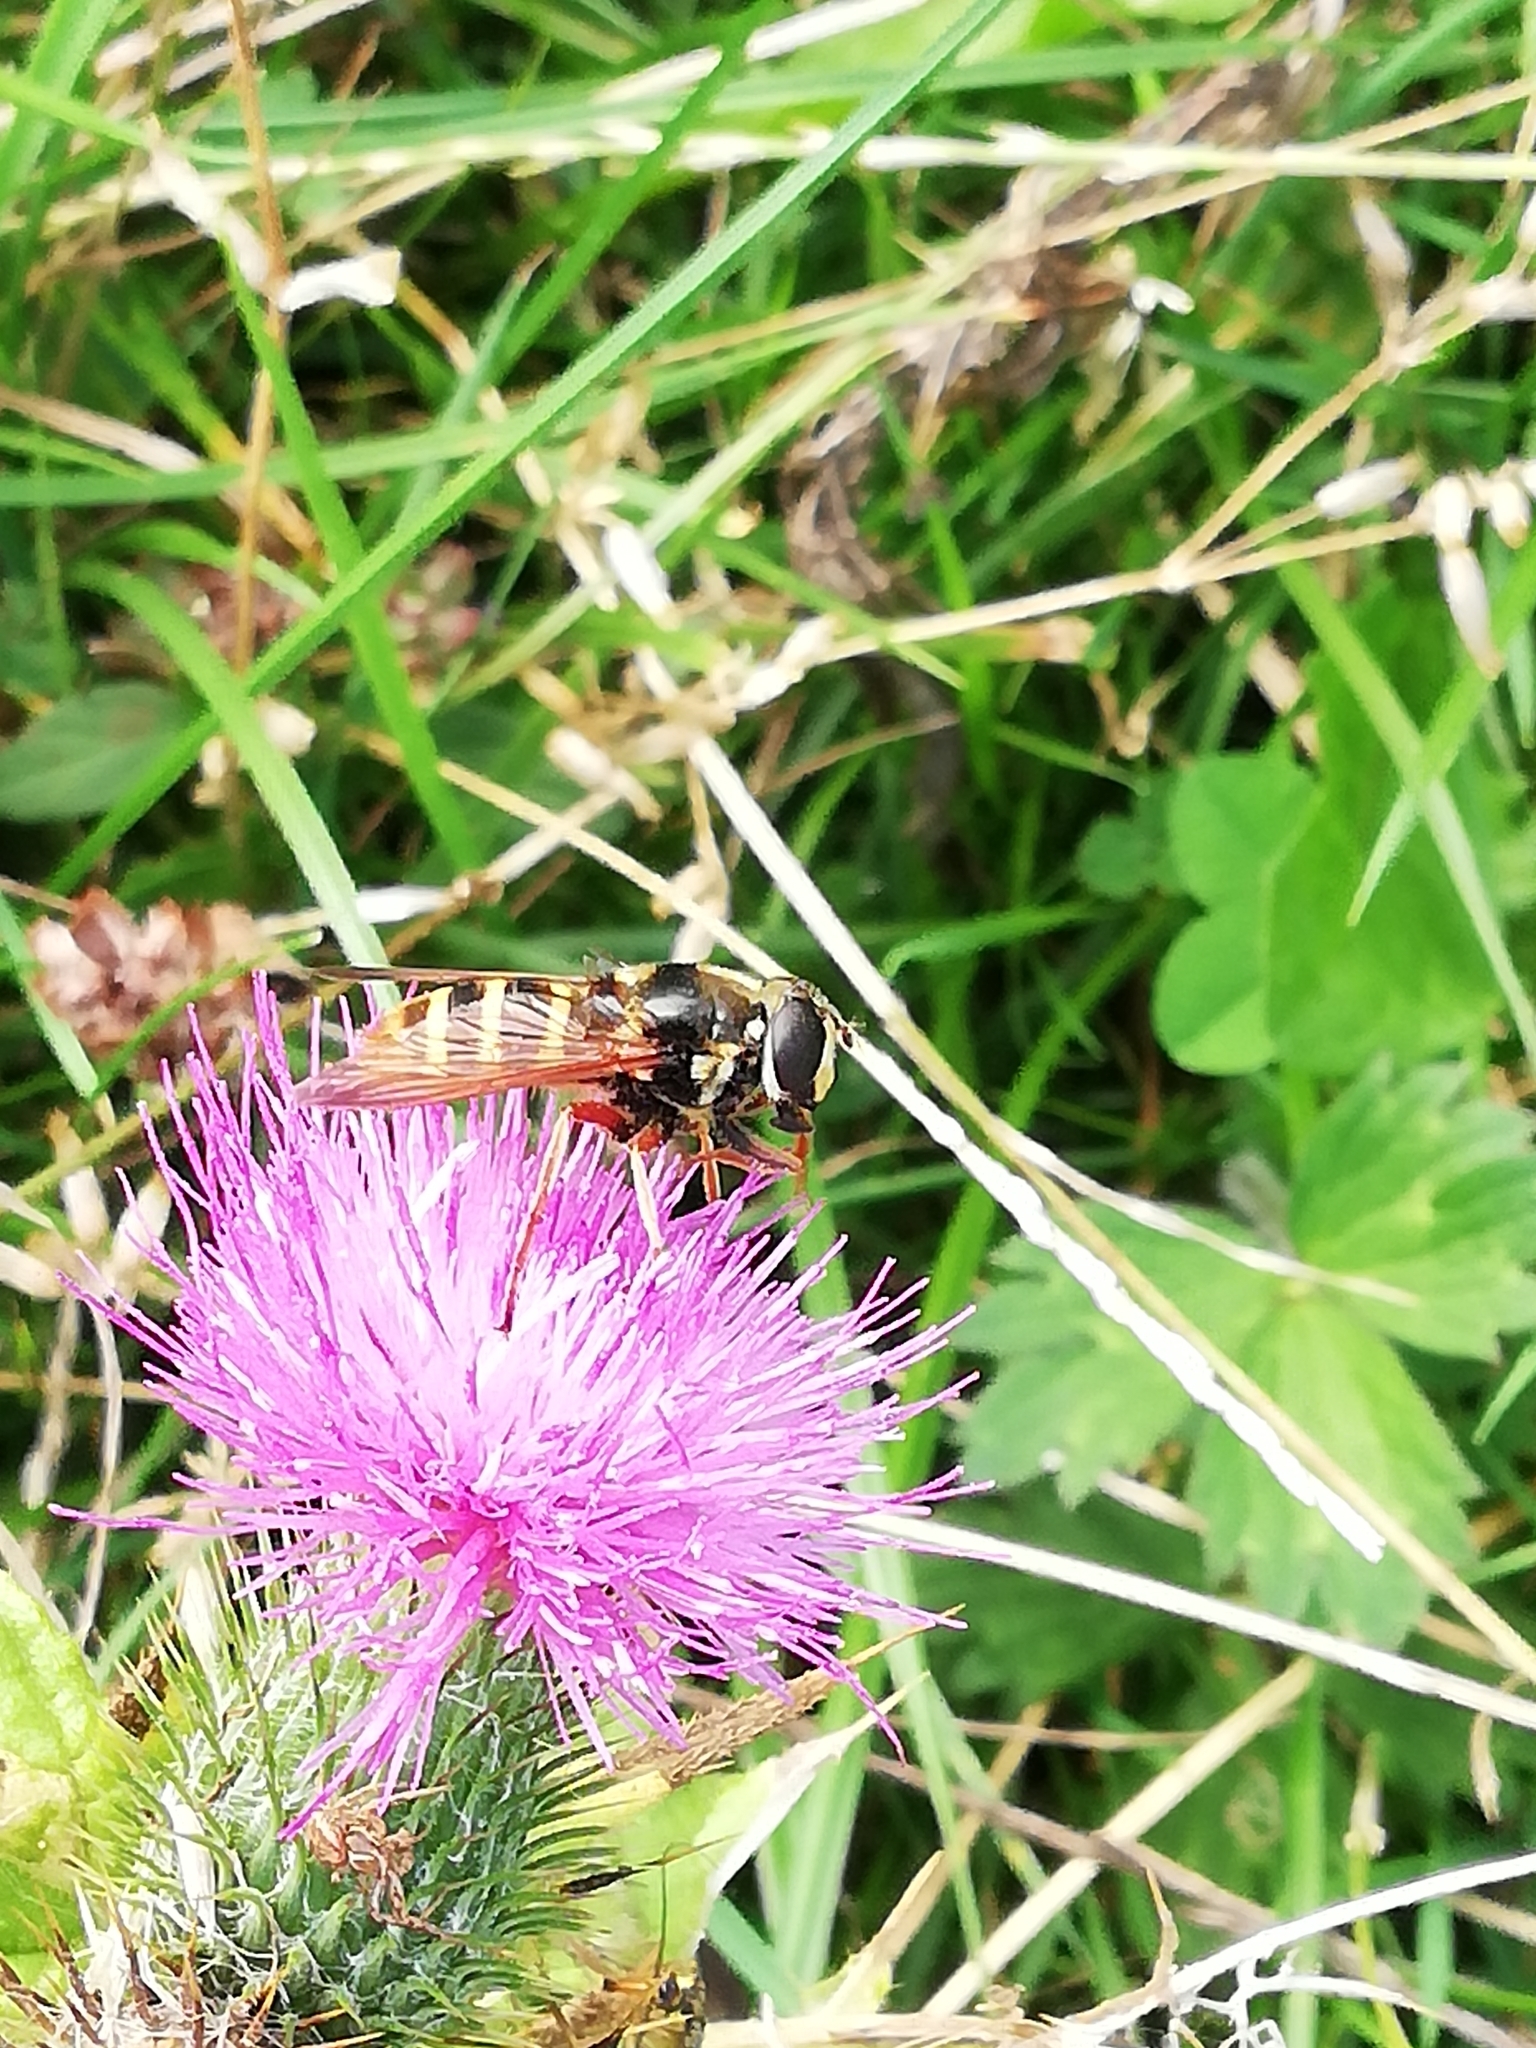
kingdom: Animalia
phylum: Arthropoda
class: Insecta
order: Diptera
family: Syrphidae
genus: Sericomyia
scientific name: Sericomyia silentis
